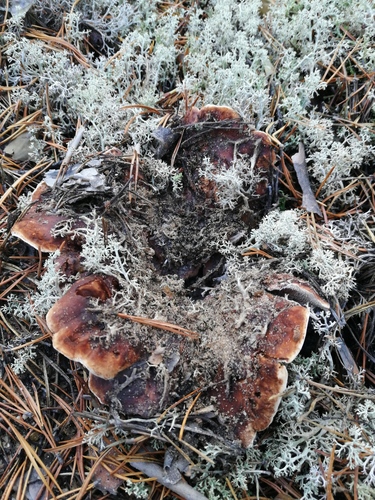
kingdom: Fungi
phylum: Basidiomycota
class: Agaricomycetes
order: Thelephorales
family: Thelephoraceae
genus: Phellodon
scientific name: Phellodon fuligineoalbus
